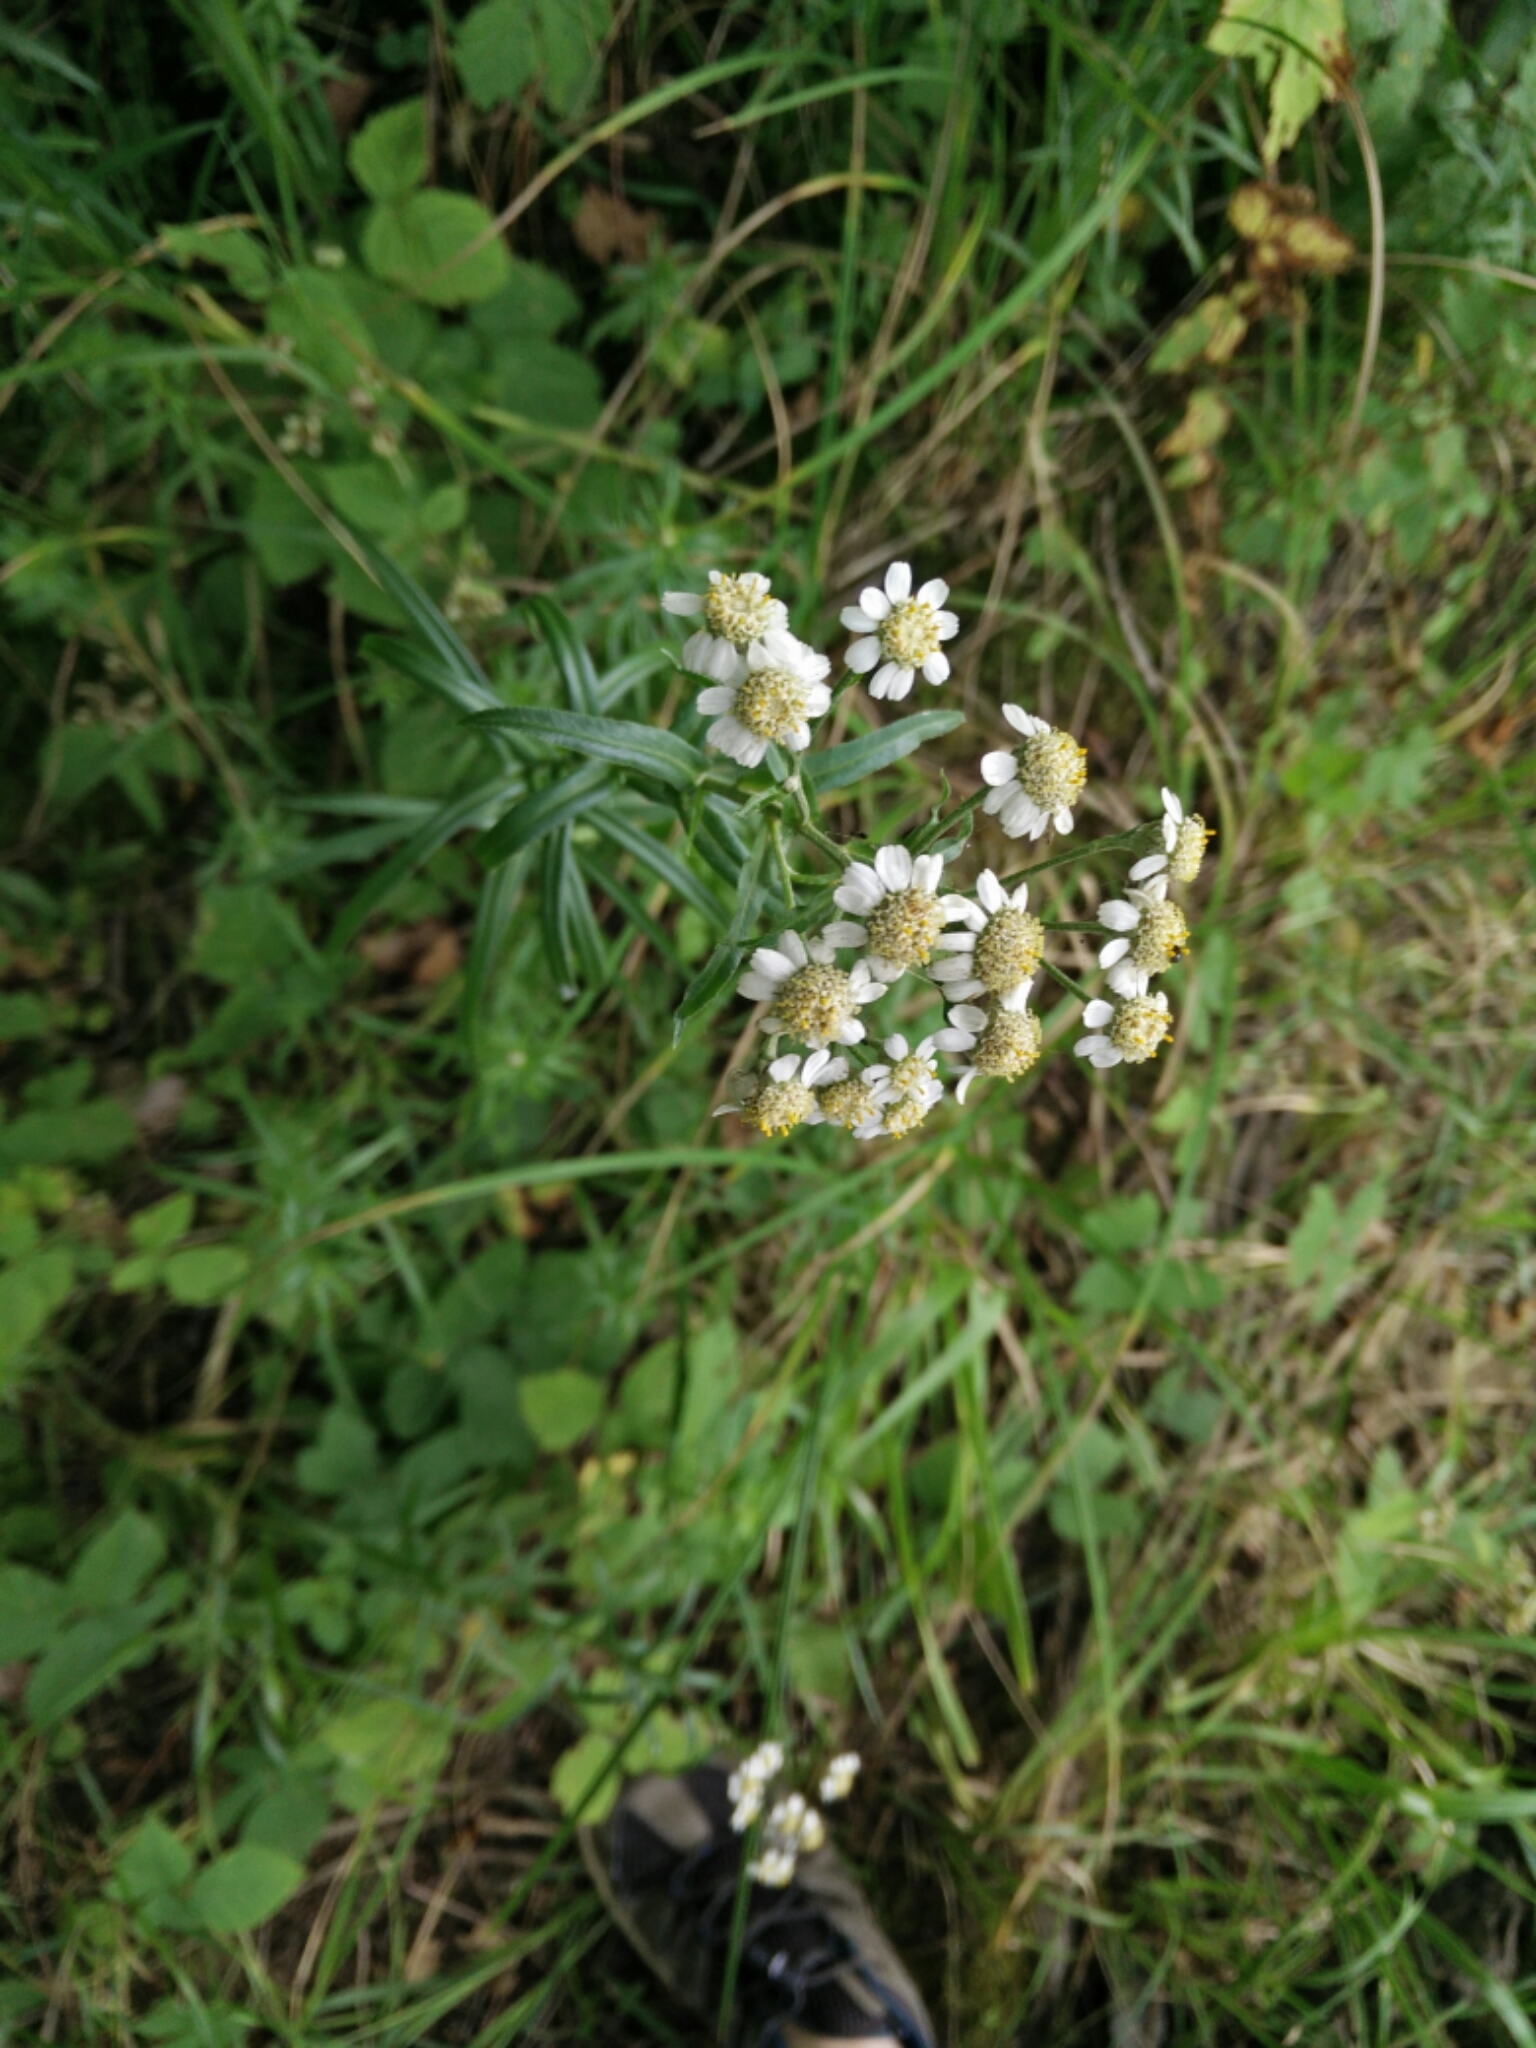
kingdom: Plantae
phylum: Tracheophyta
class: Magnoliopsida
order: Asterales
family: Asteraceae
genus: Achillea
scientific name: Achillea ptarmica
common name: Sneezeweed
